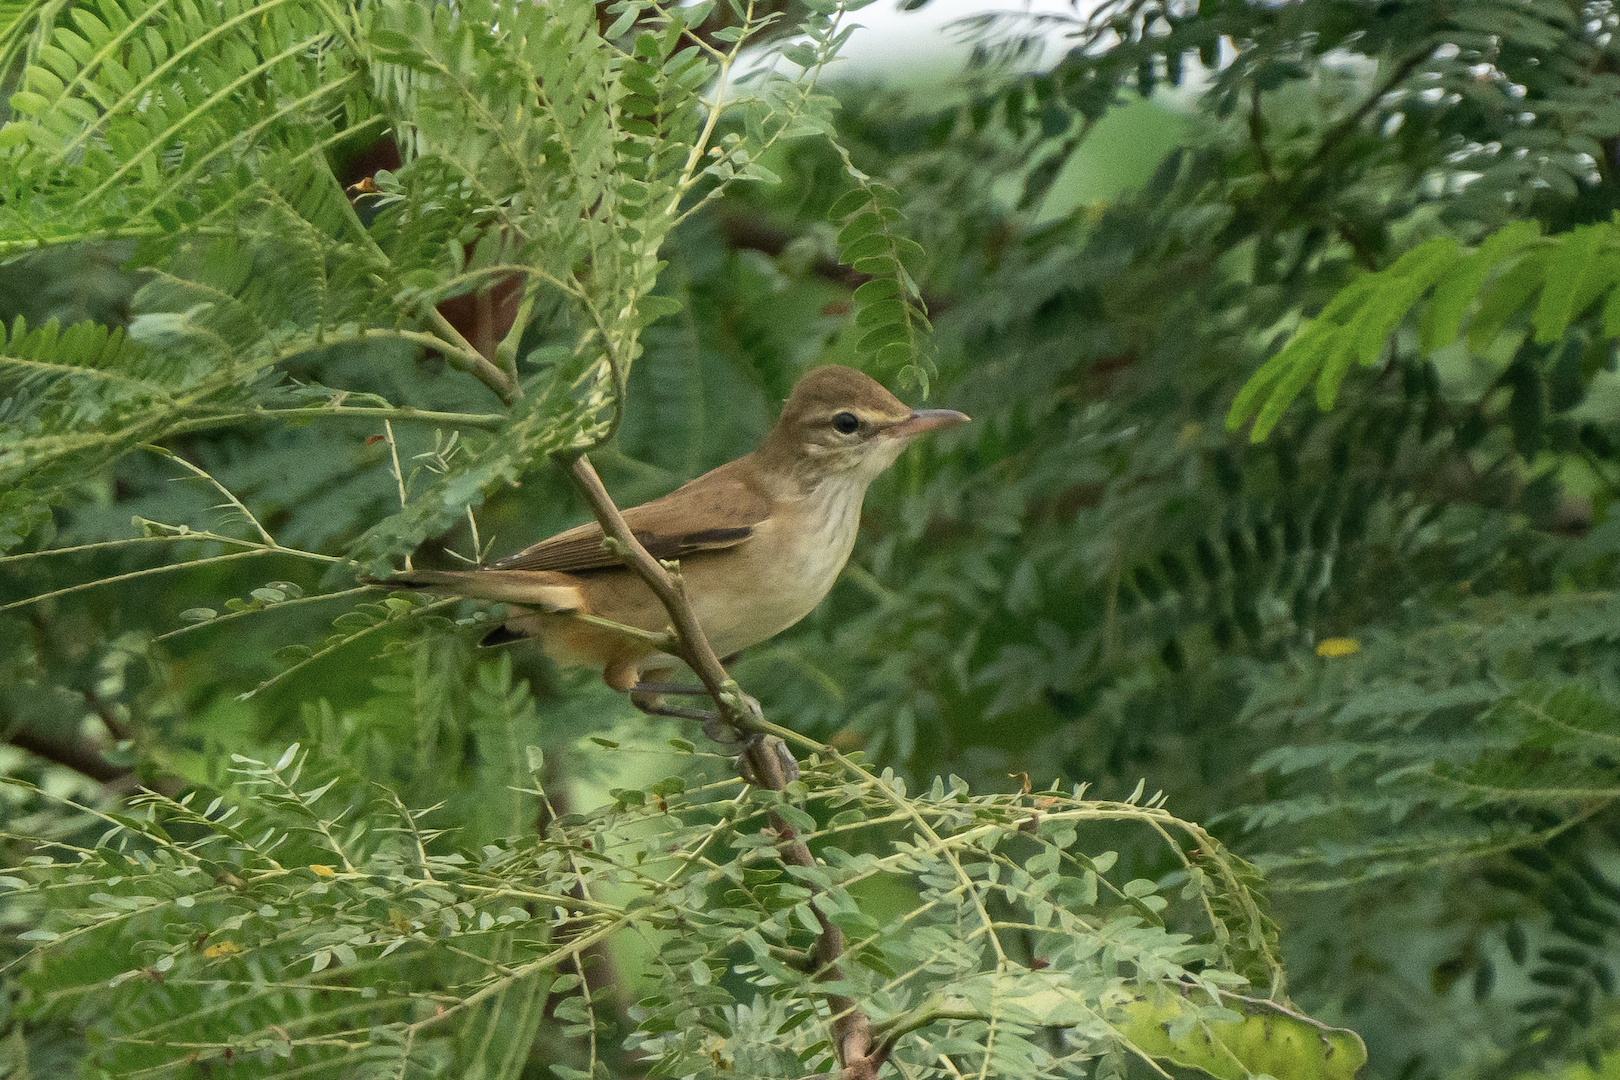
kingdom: Animalia
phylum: Chordata
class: Aves
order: Passeriformes
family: Acrocephalidae
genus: Acrocephalus
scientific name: Acrocephalus orientalis
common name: Oriental reed warbler
